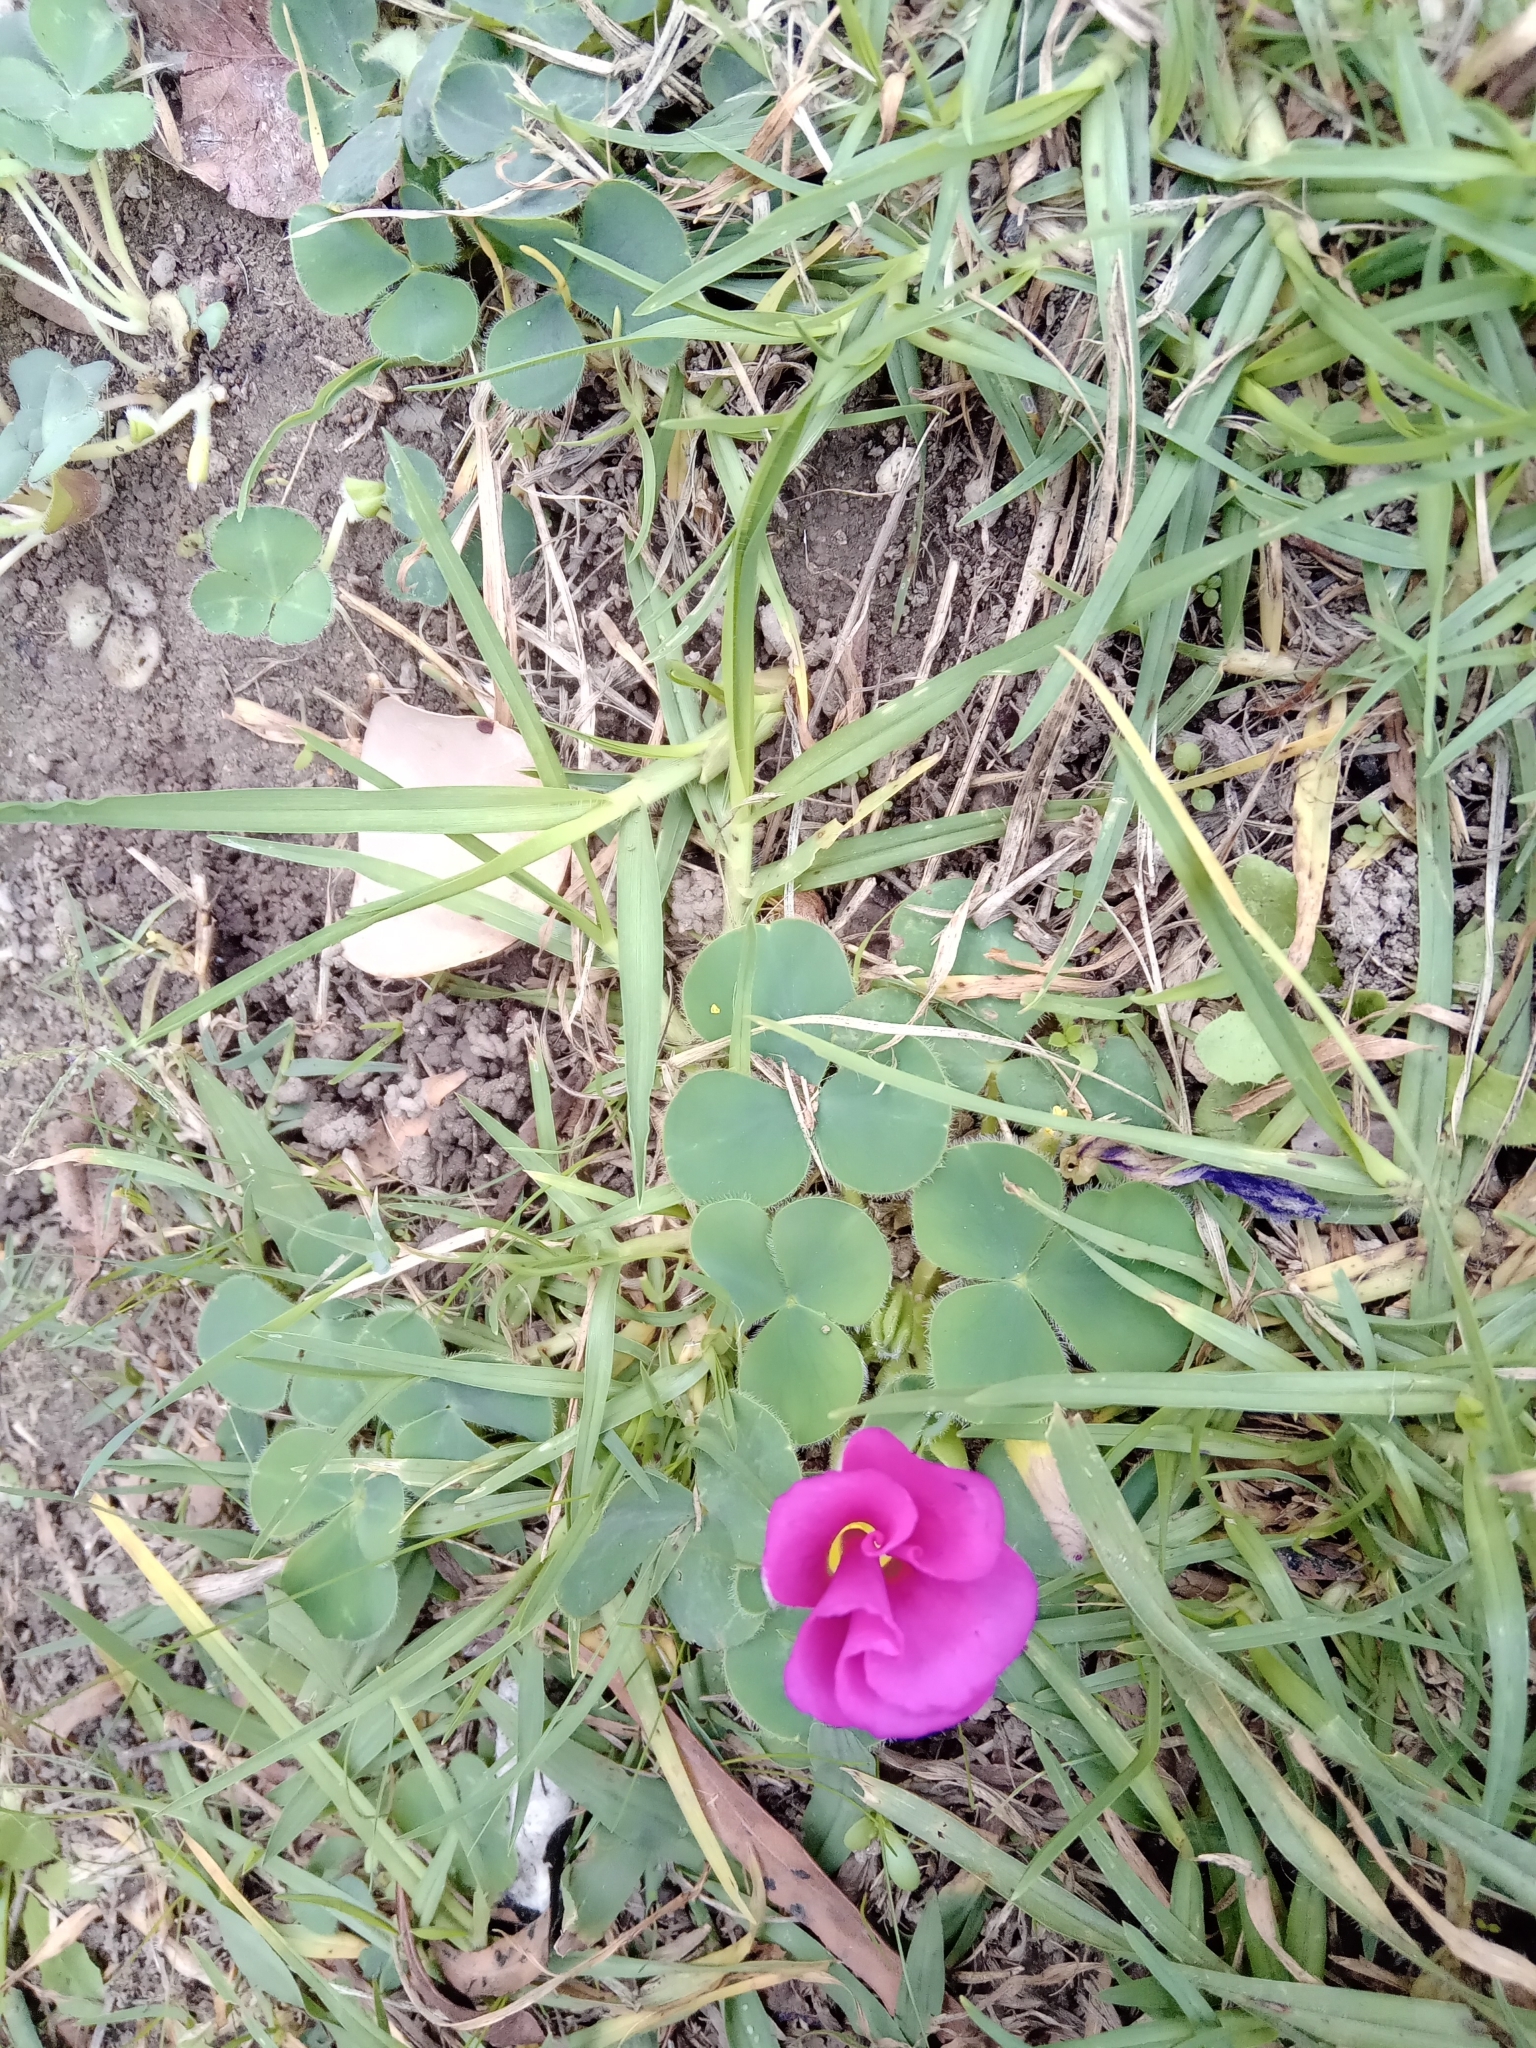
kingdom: Plantae
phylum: Tracheophyta
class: Magnoliopsida
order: Oxalidales
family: Oxalidaceae
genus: Oxalis
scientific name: Oxalis purpurea
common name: Purple woodsorrel
